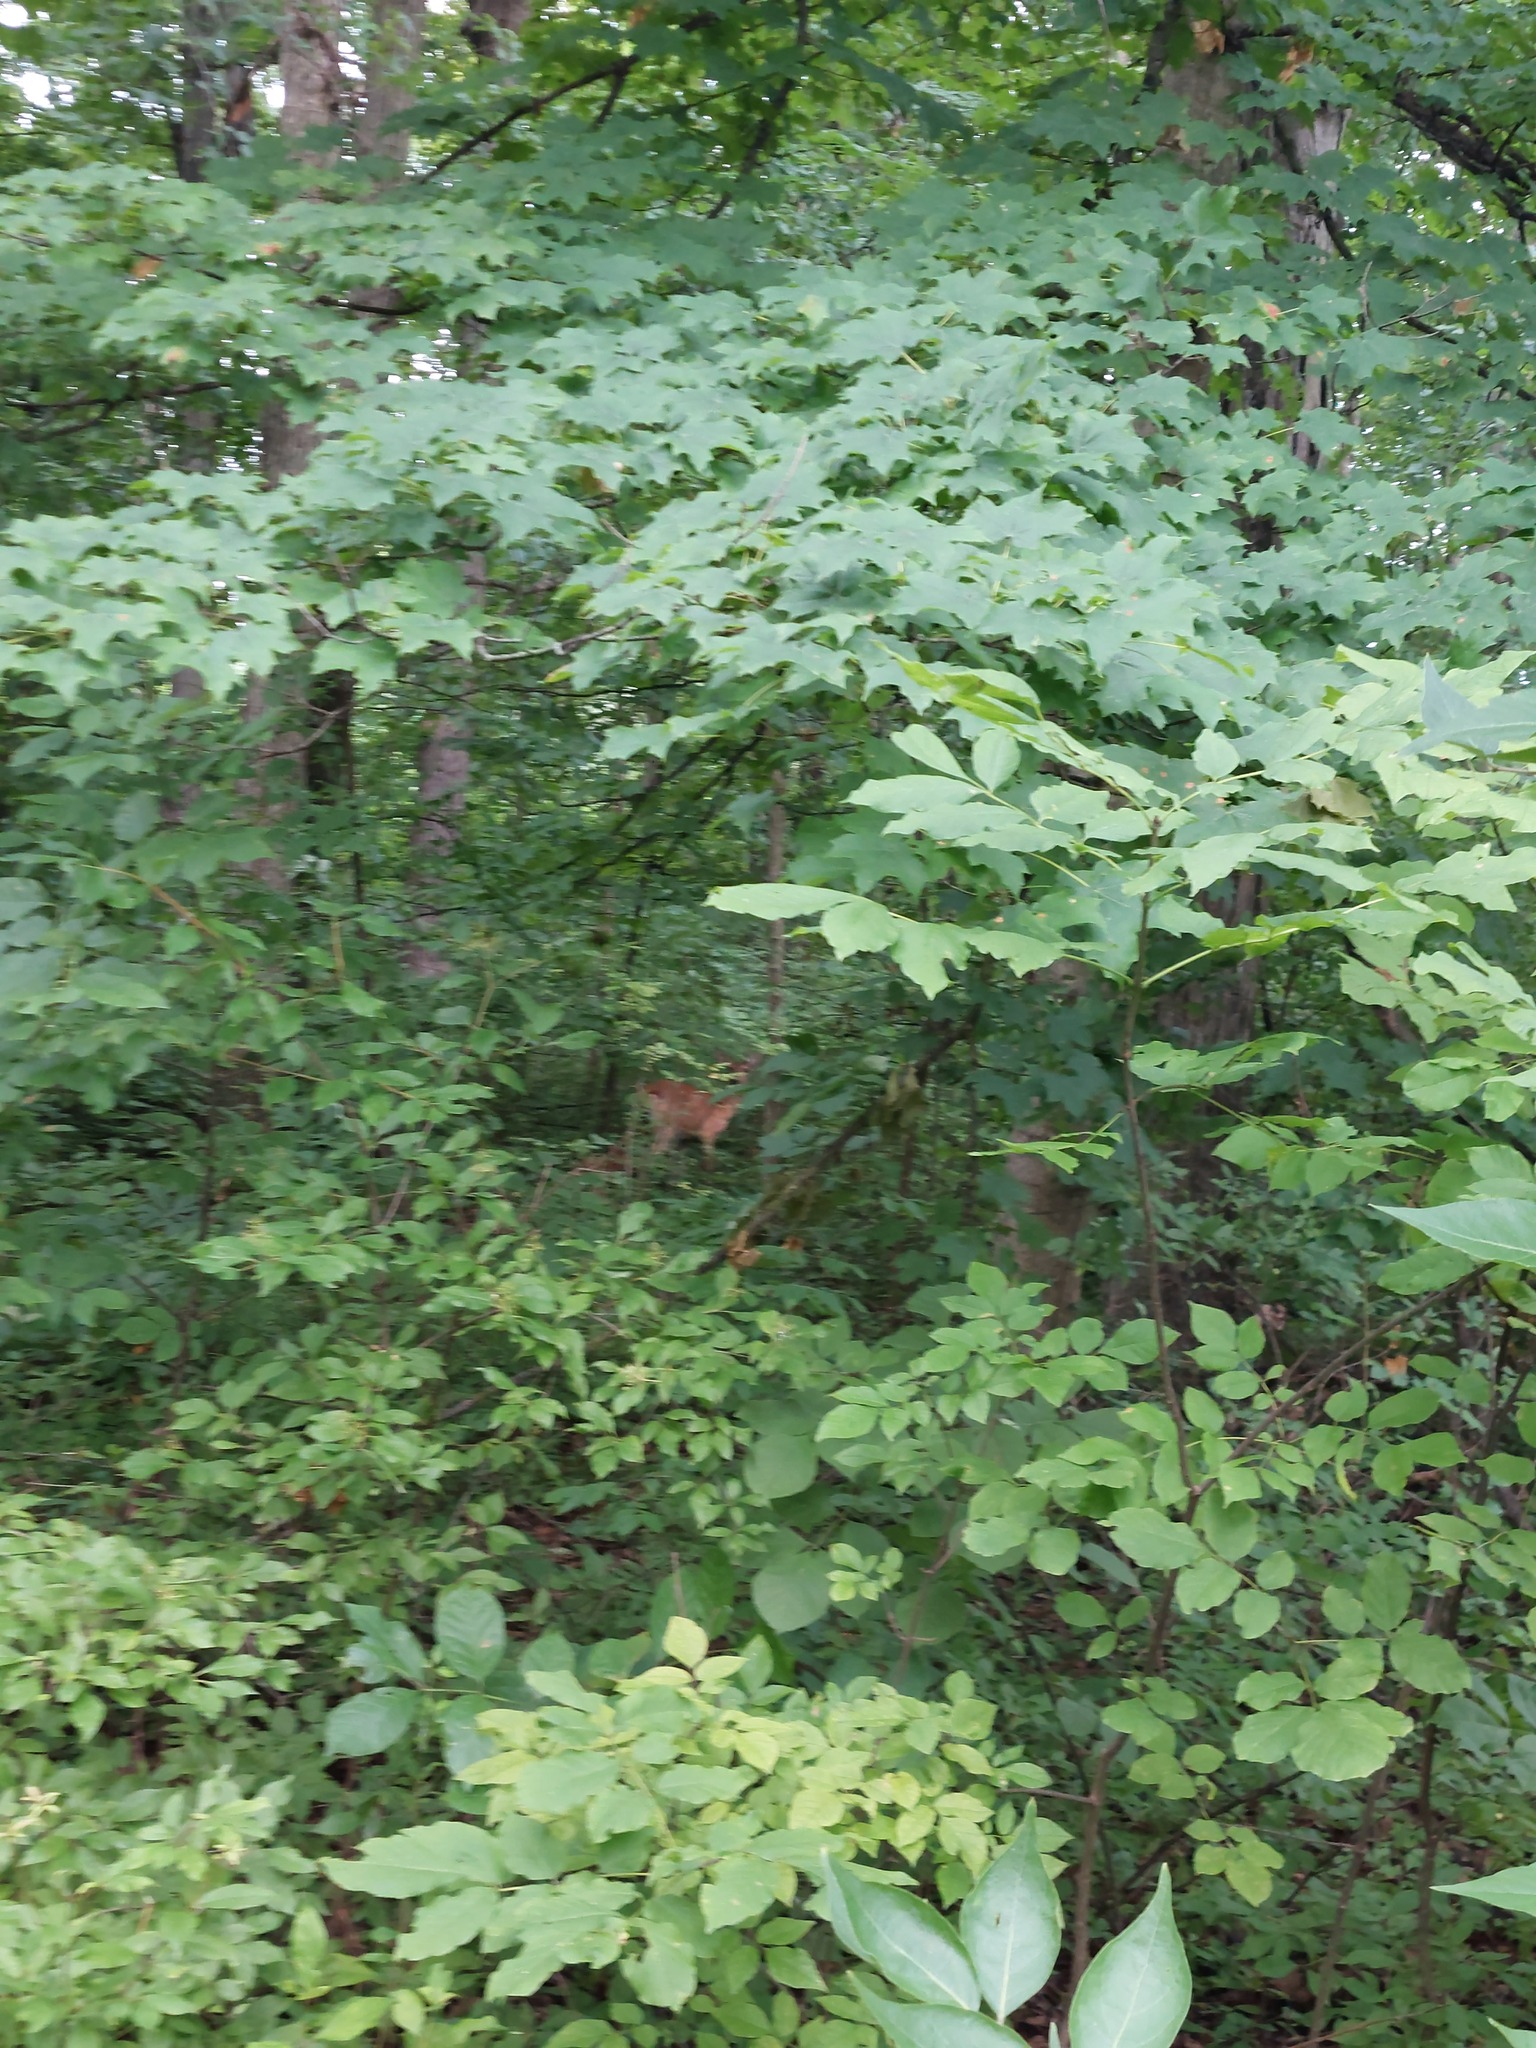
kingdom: Animalia
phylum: Chordata
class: Mammalia
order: Artiodactyla
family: Cervidae
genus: Odocoileus
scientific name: Odocoileus virginianus
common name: White-tailed deer
